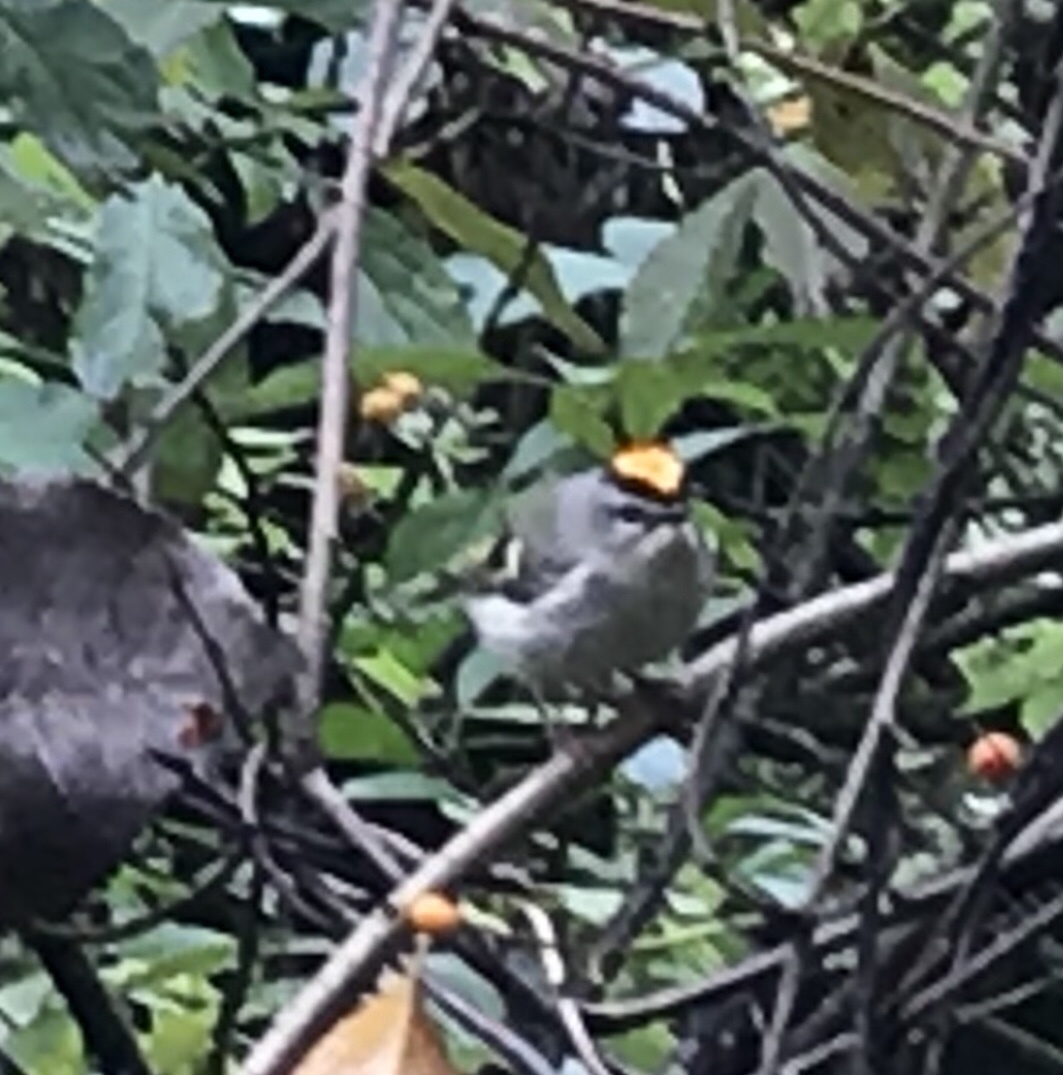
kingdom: Animalia
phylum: Chordata
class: Aves
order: Passeriformes
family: Regulidae
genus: Regulus
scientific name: Regulus satrapa
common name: Golden-crowned kinglet
